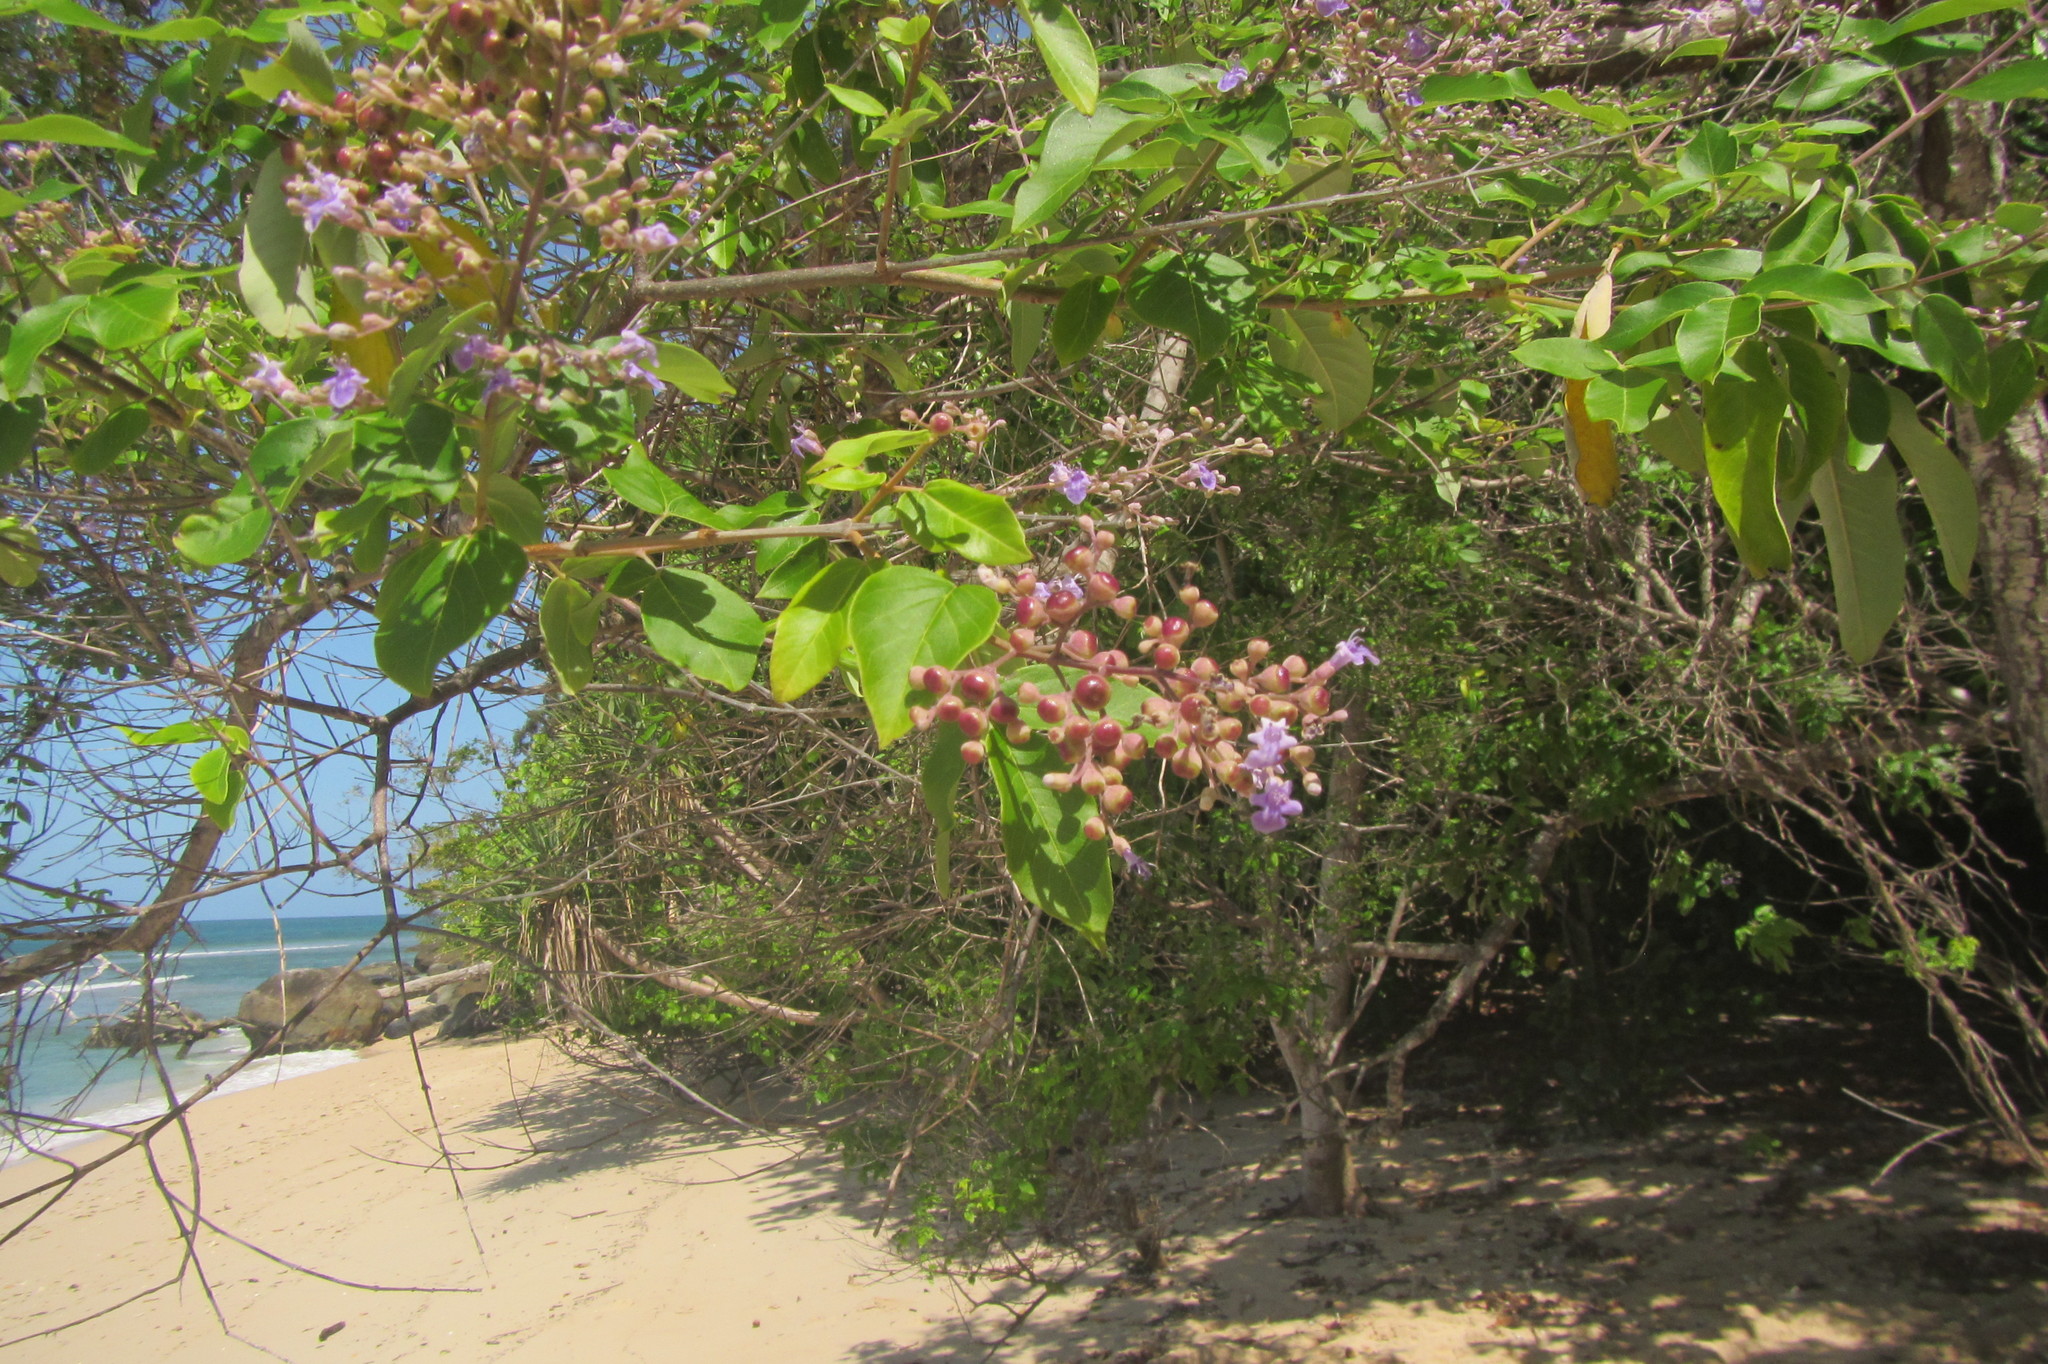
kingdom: Plantae
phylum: Tracheophyta
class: Magnoliopsida
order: Lamiales
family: Lamiaceae
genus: Vitex
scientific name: Vitex trifolia
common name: Simpleleaf chastetree
